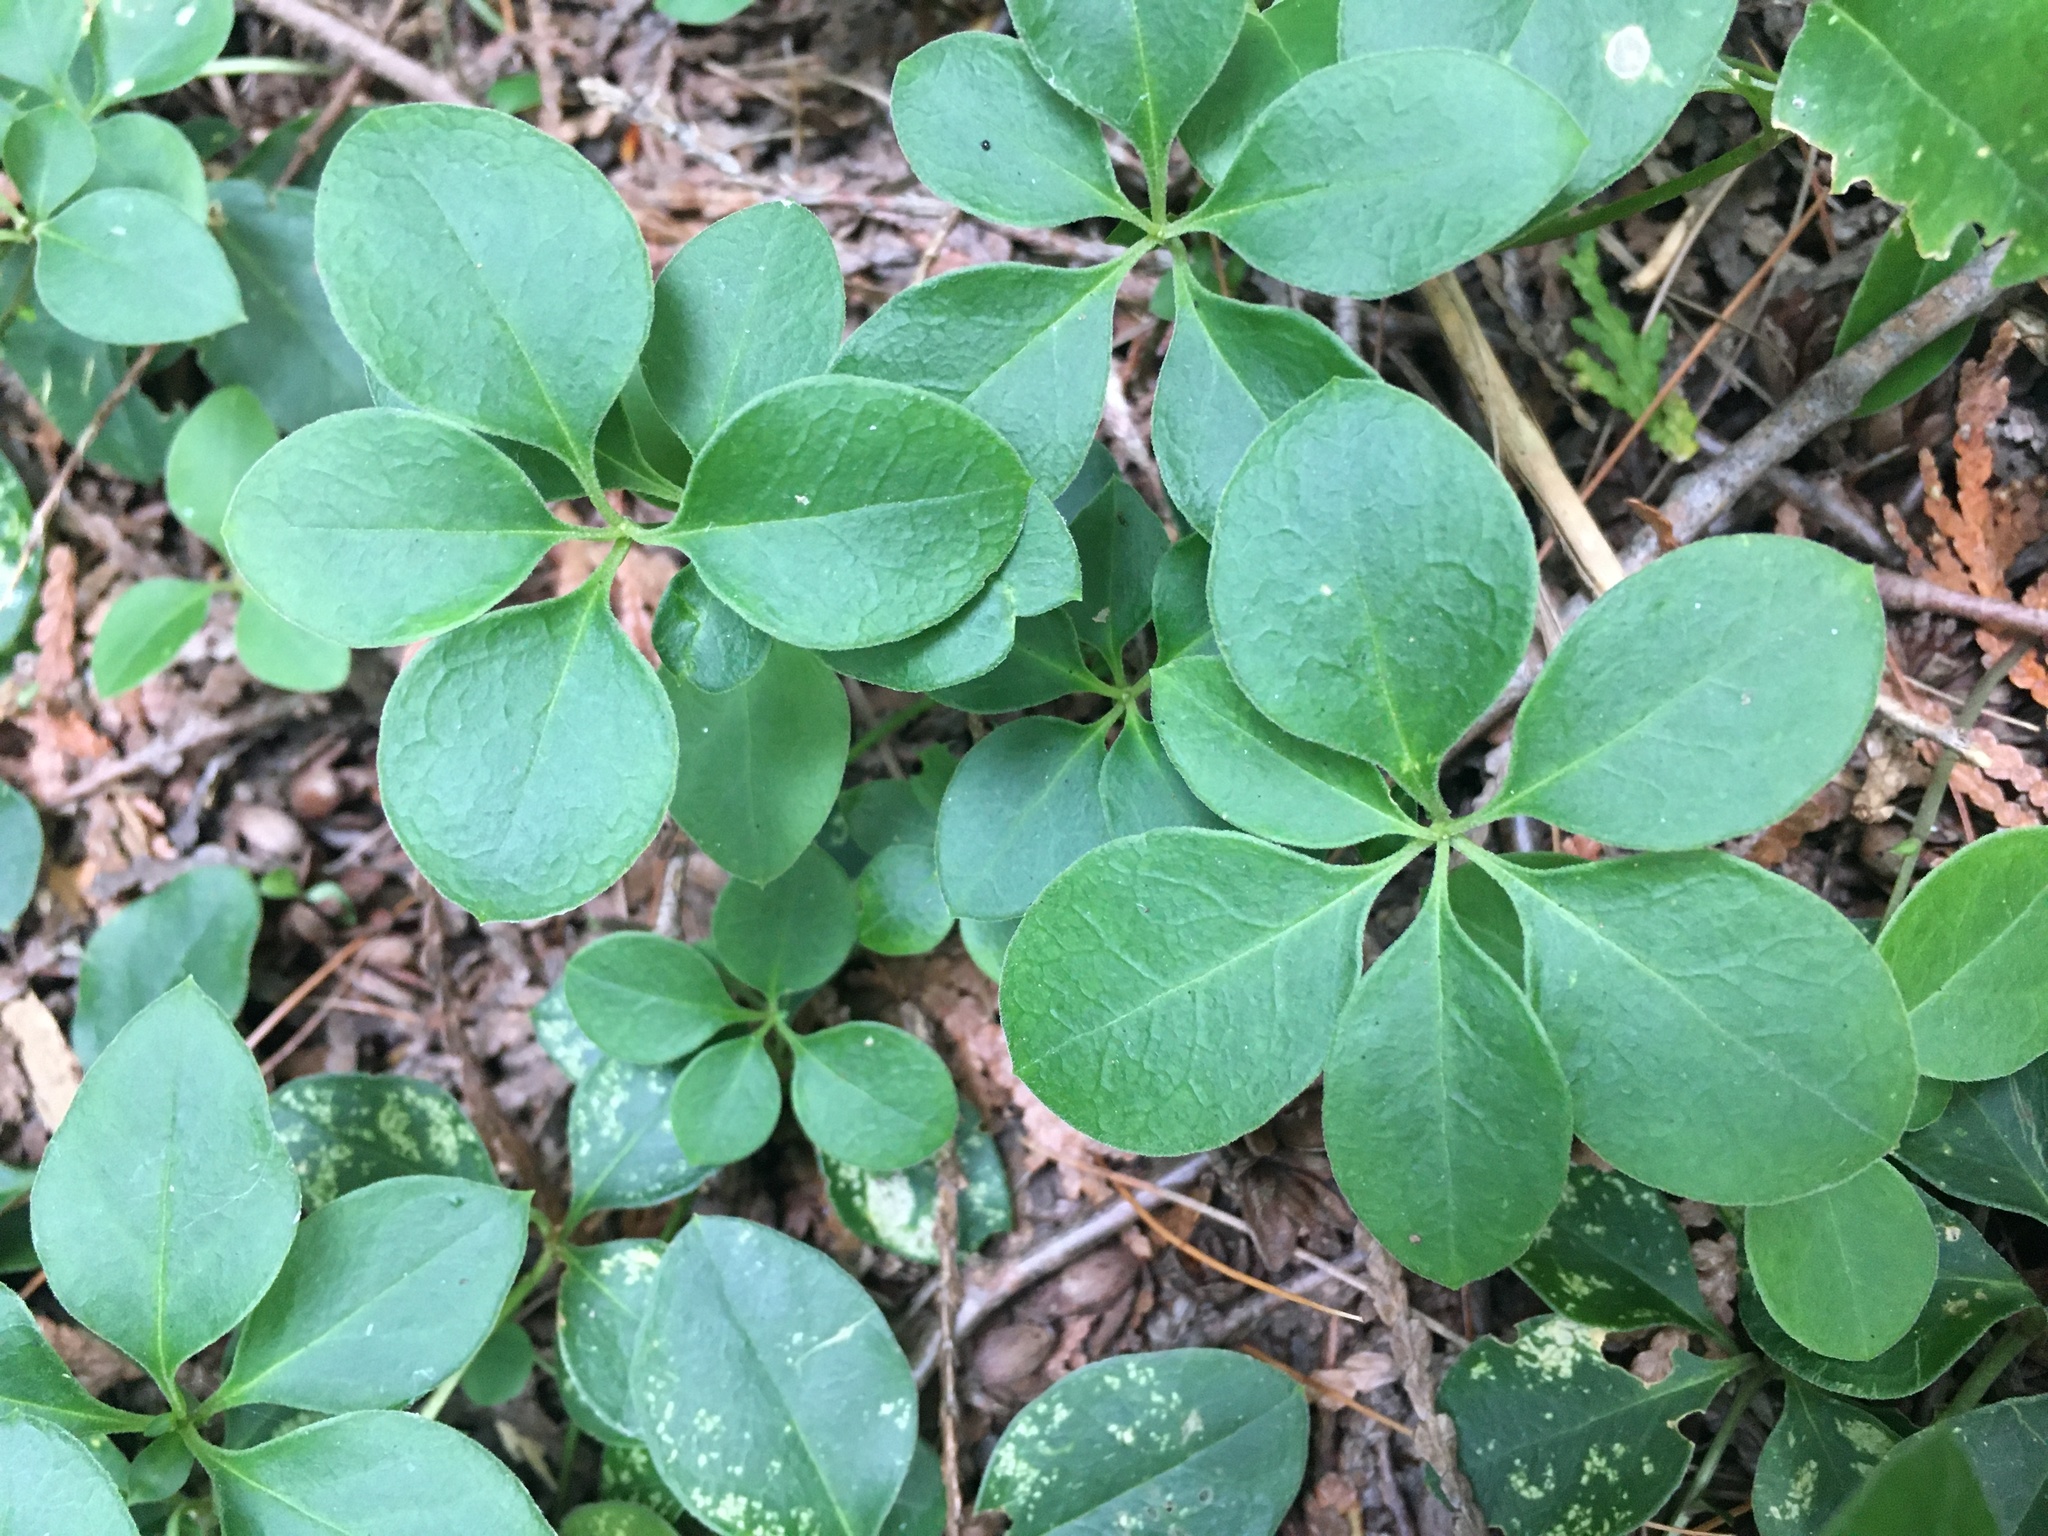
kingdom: Plantae
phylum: Tracheophyta
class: Magnoliopsida
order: Fabales
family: Polygalaceae
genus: Polygaloides
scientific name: Polygaloides paucifolia
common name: Bird-on-the-wing
